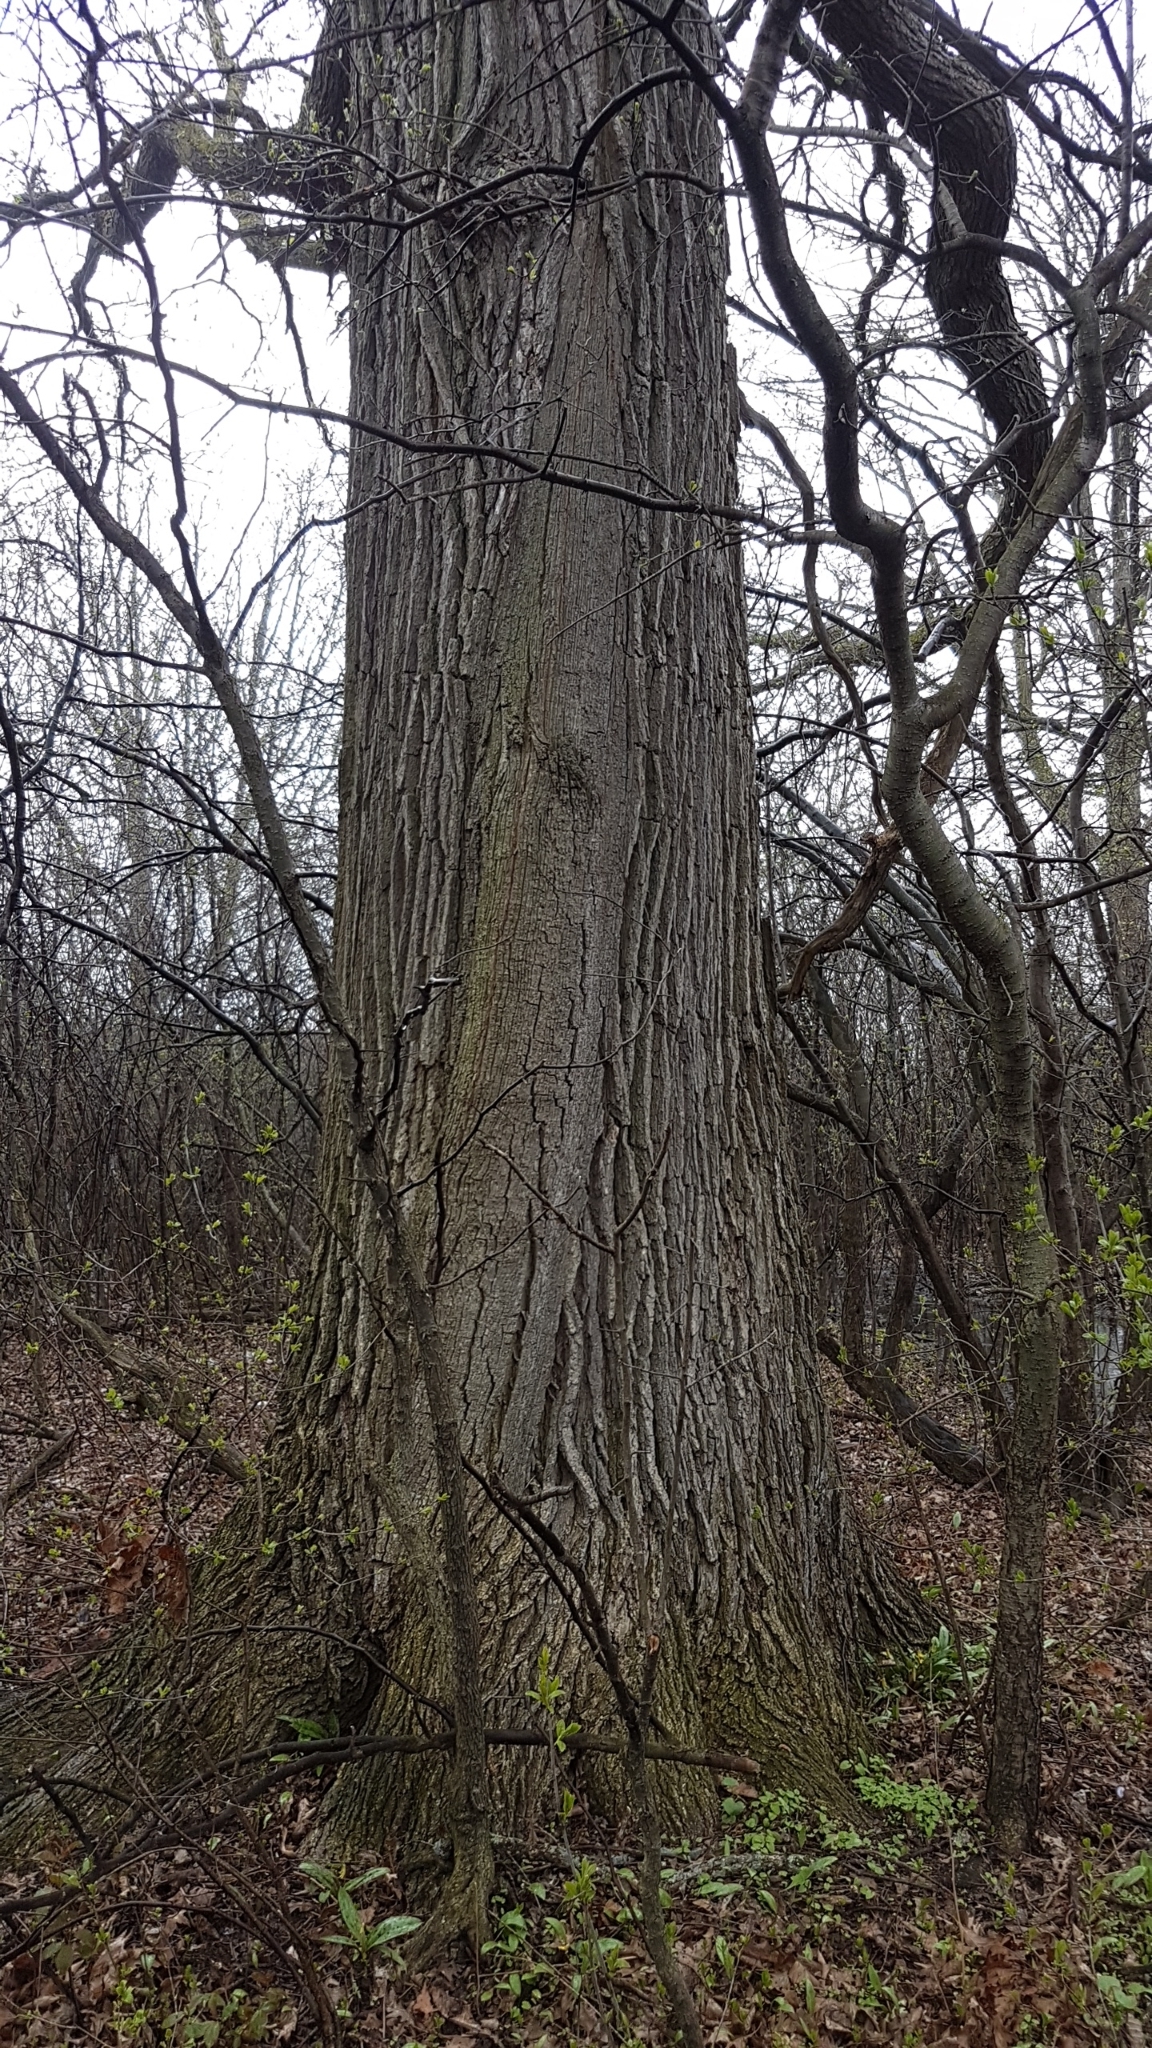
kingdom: Plantae
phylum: Tracheophyta
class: Magnoliopsida
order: Fagales
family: Fagaceae
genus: Quercus
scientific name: Quercus macrocarpa
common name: Bur oak
